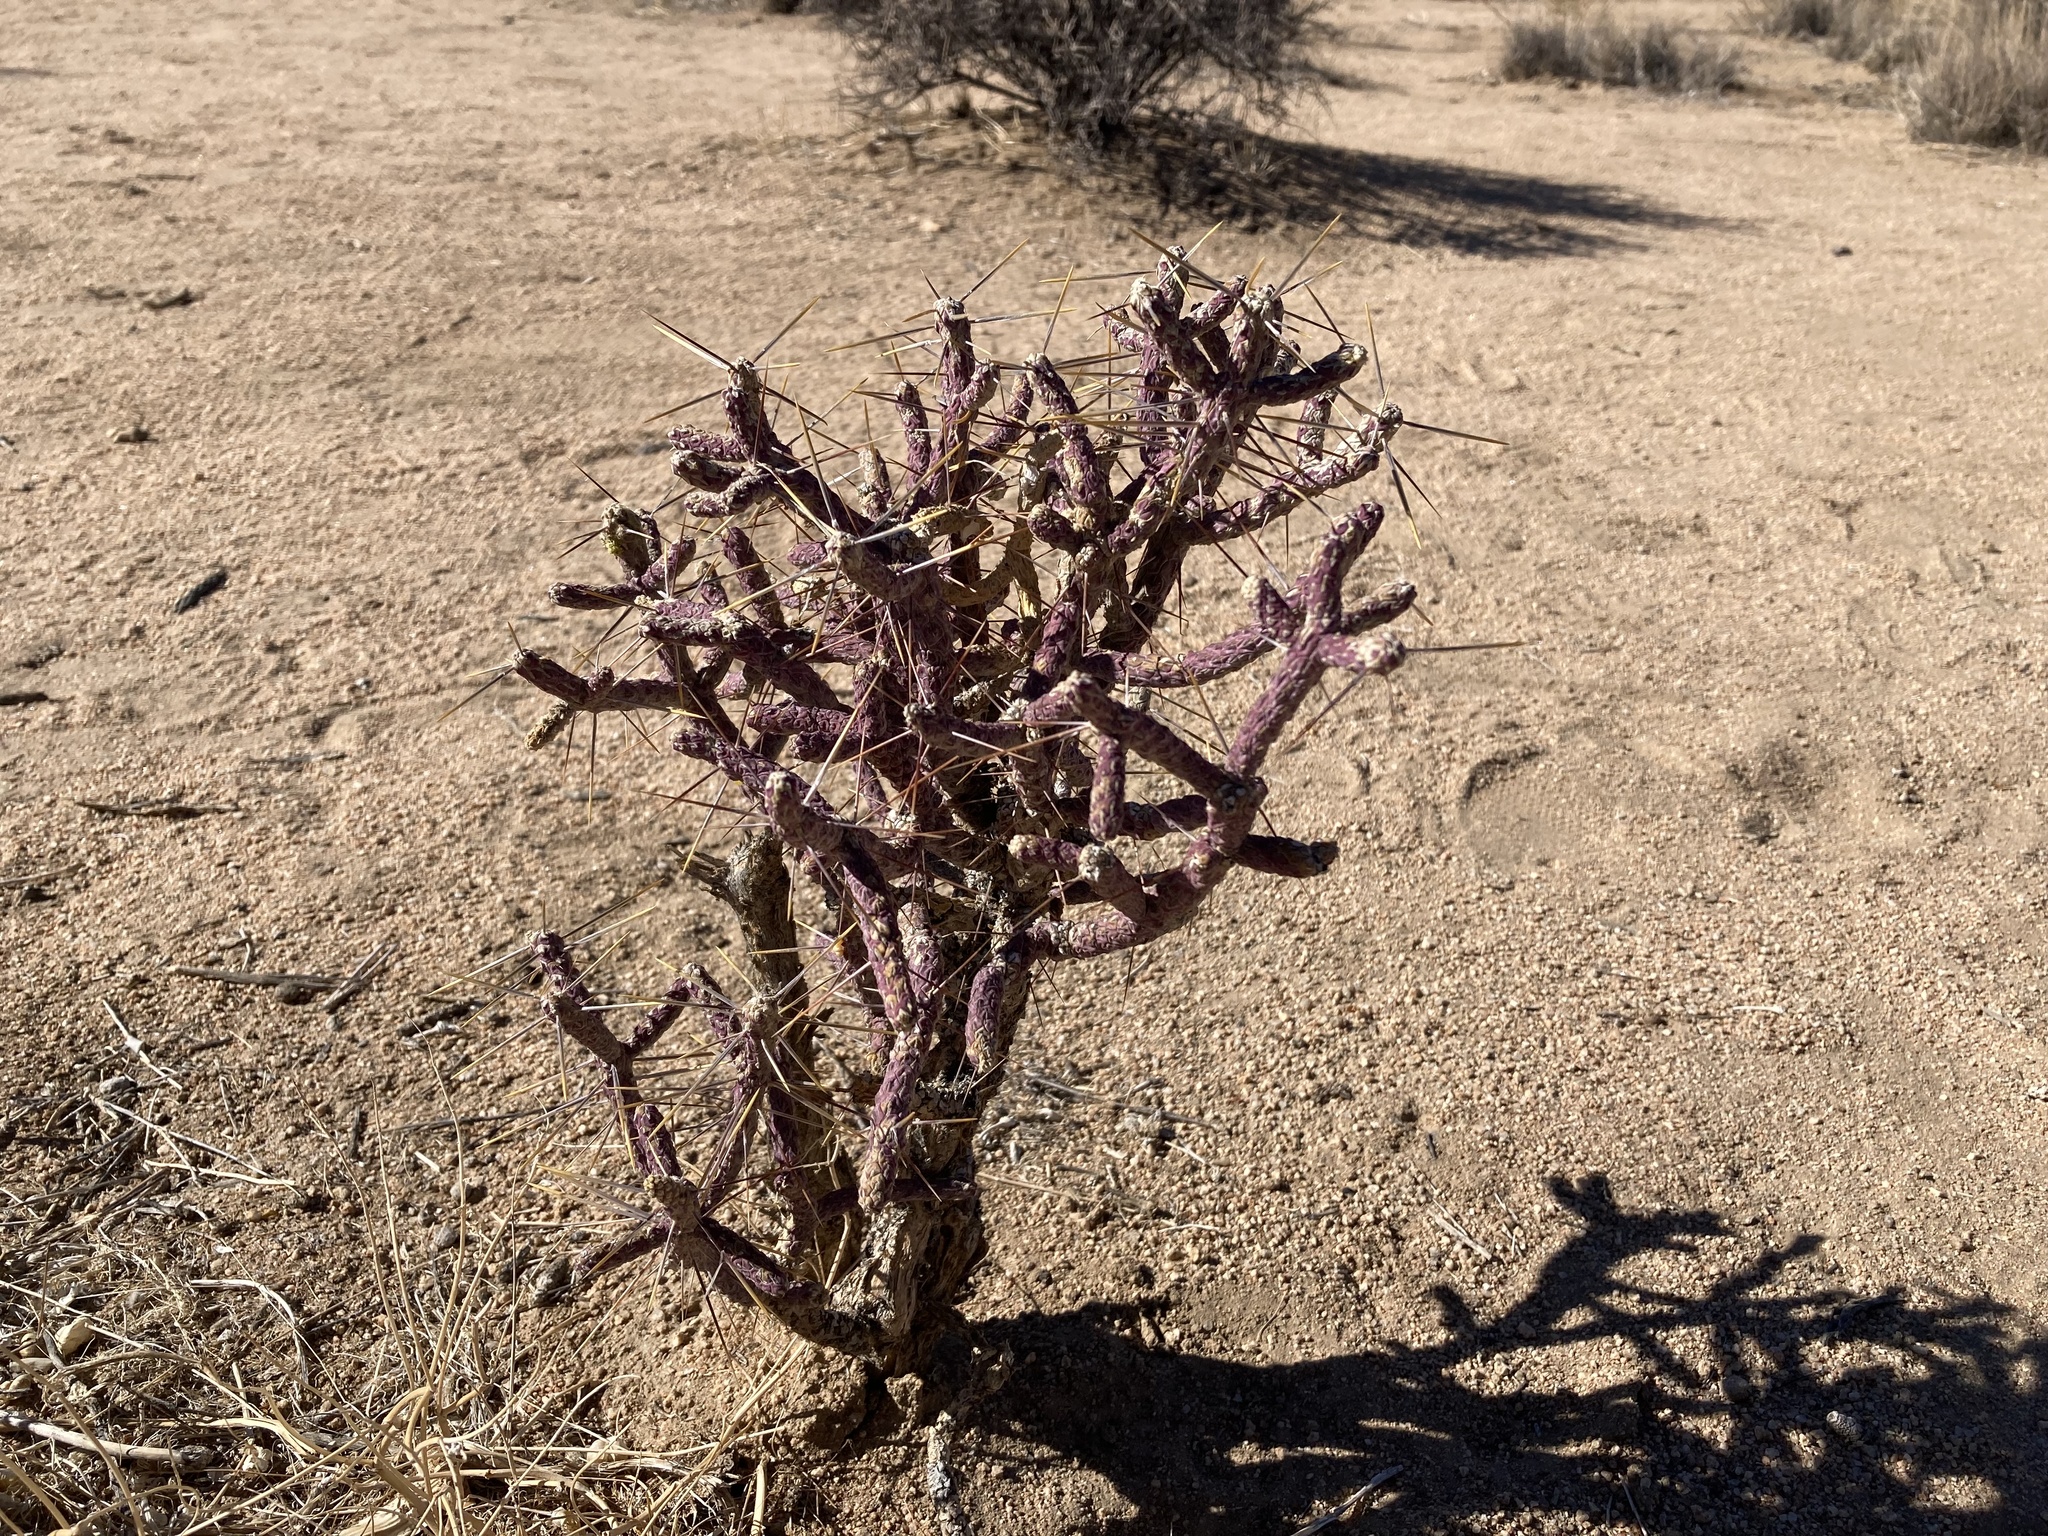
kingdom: Plantae
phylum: Tracheophyta
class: Magnoliopsida
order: Caryophyllales
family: Cactaceae
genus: Cylindropuntia
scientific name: Cylindropuntia ramosissima
